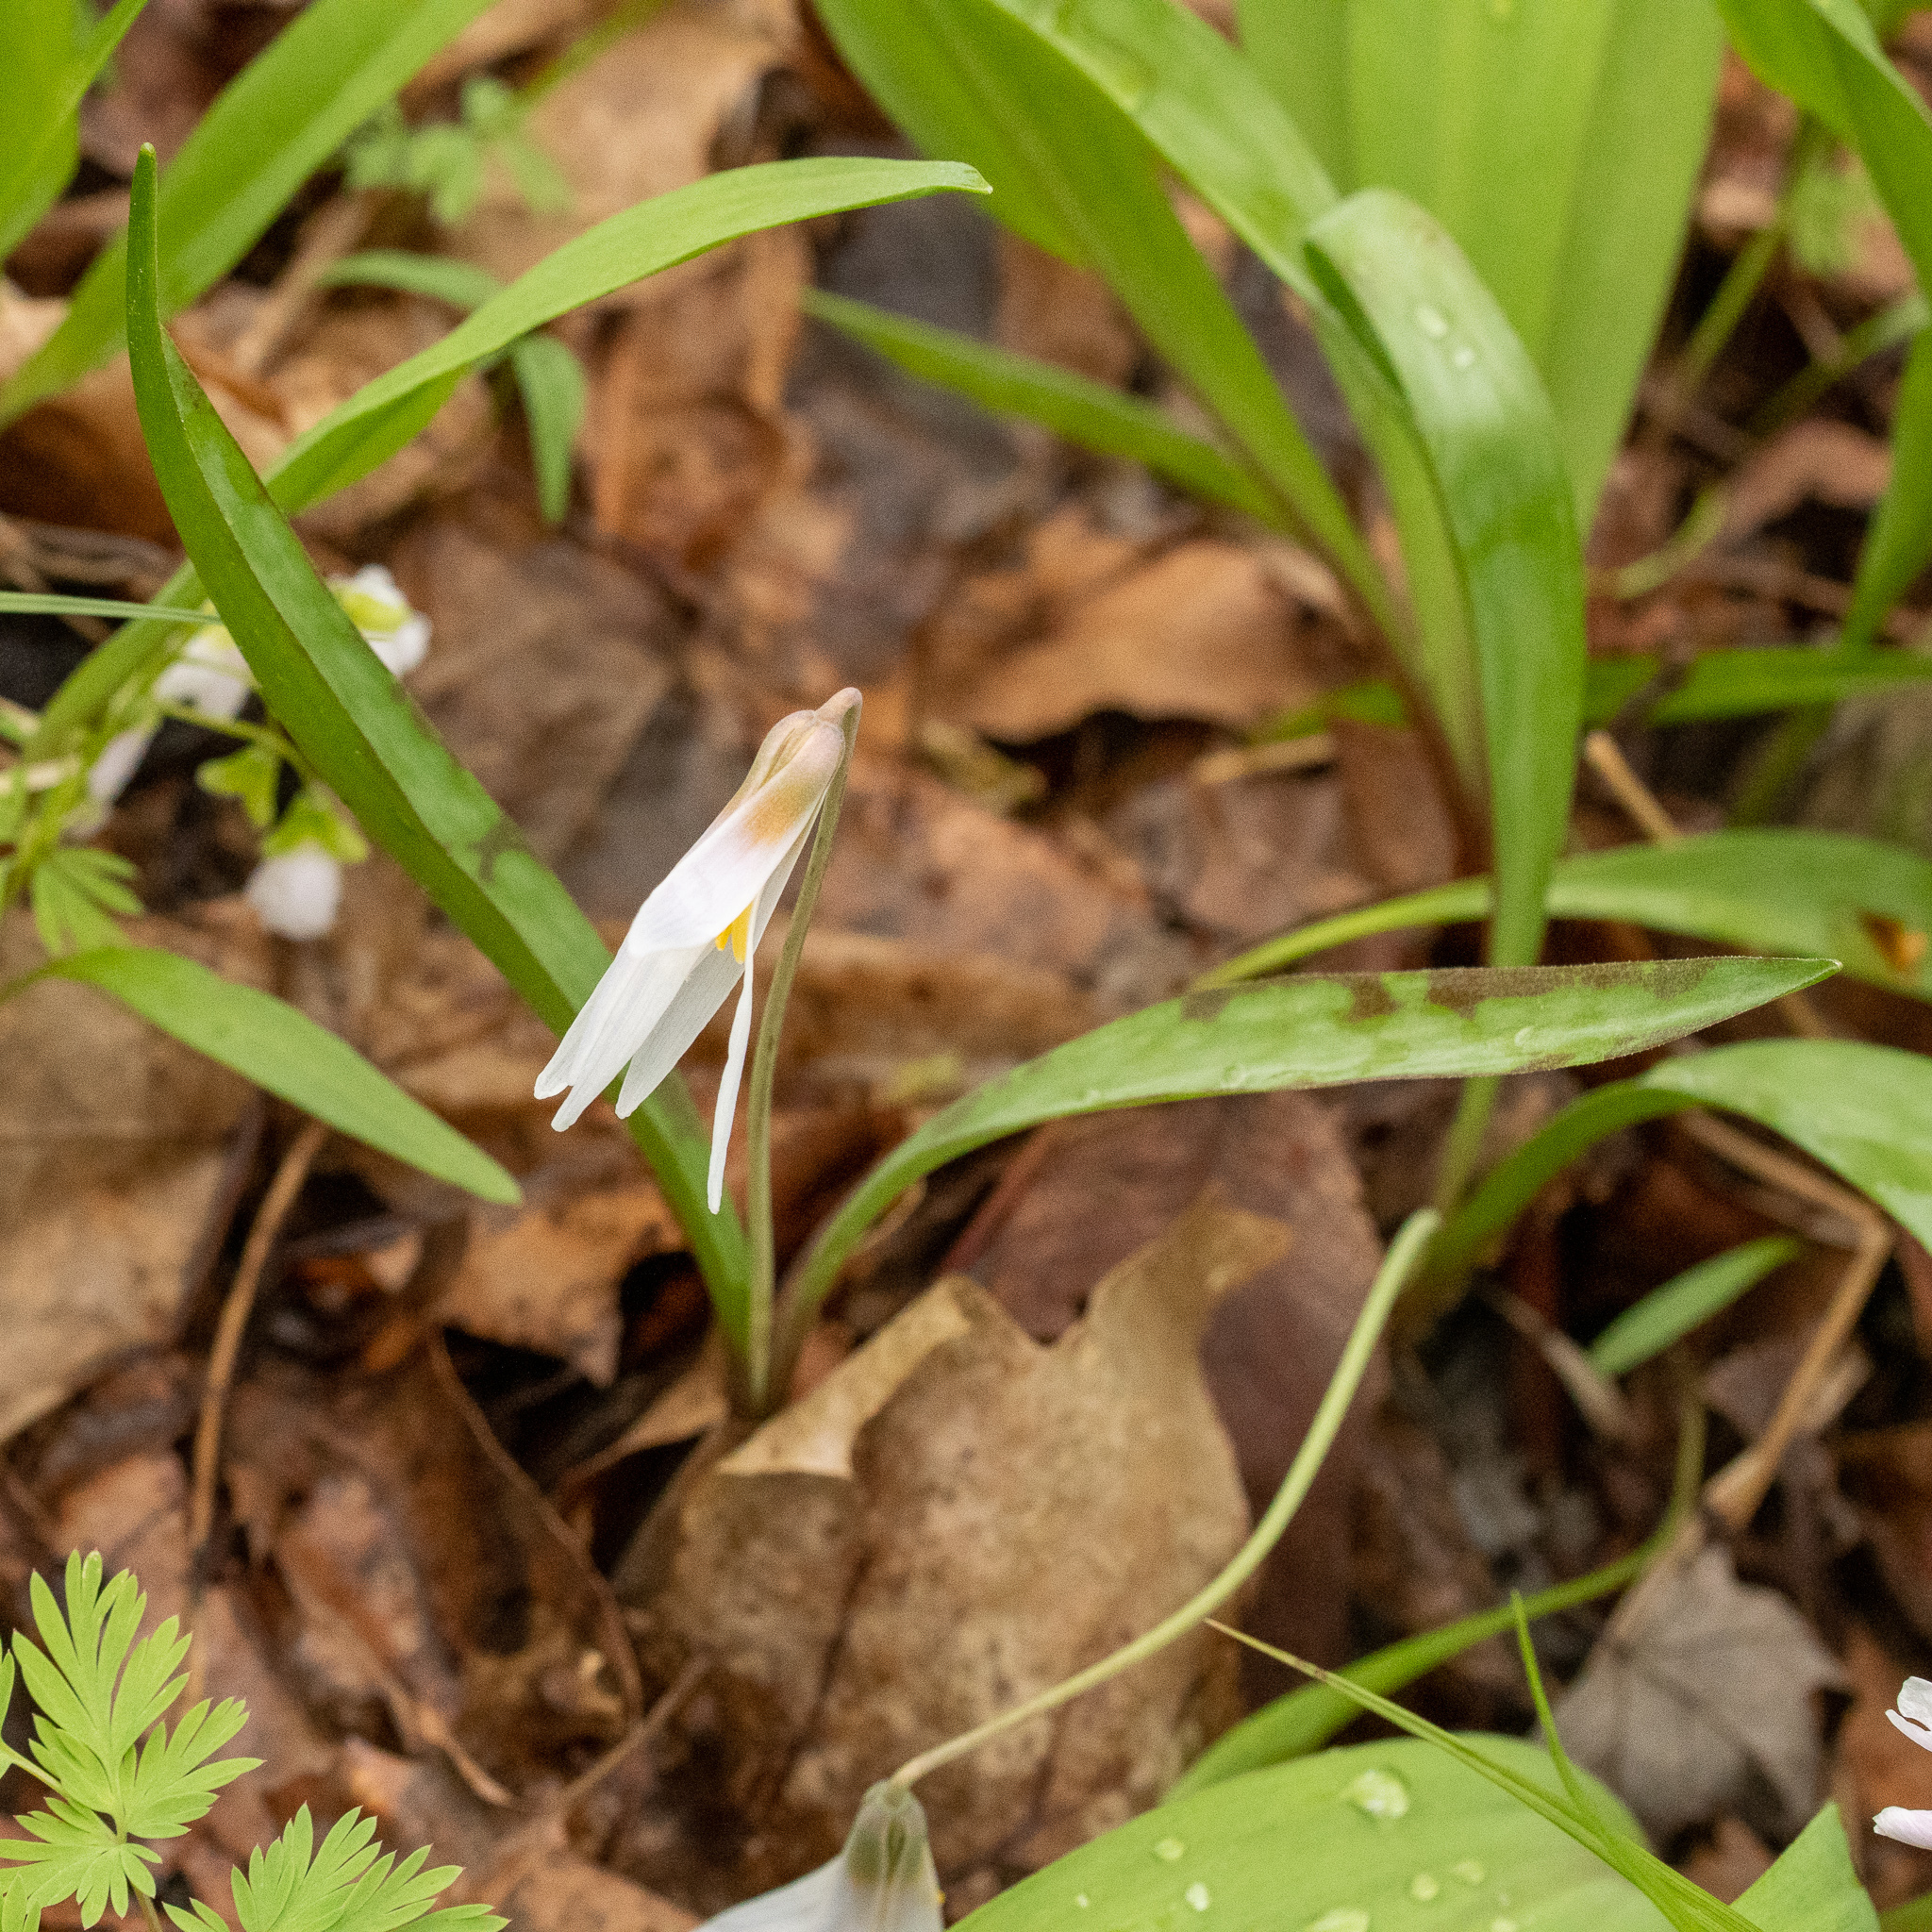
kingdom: Plantae
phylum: Tracheophyta
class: Liliopsida
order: Liliales
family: Liliaceae
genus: Erythronium
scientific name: Erythronium albidum
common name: White trout-lily
